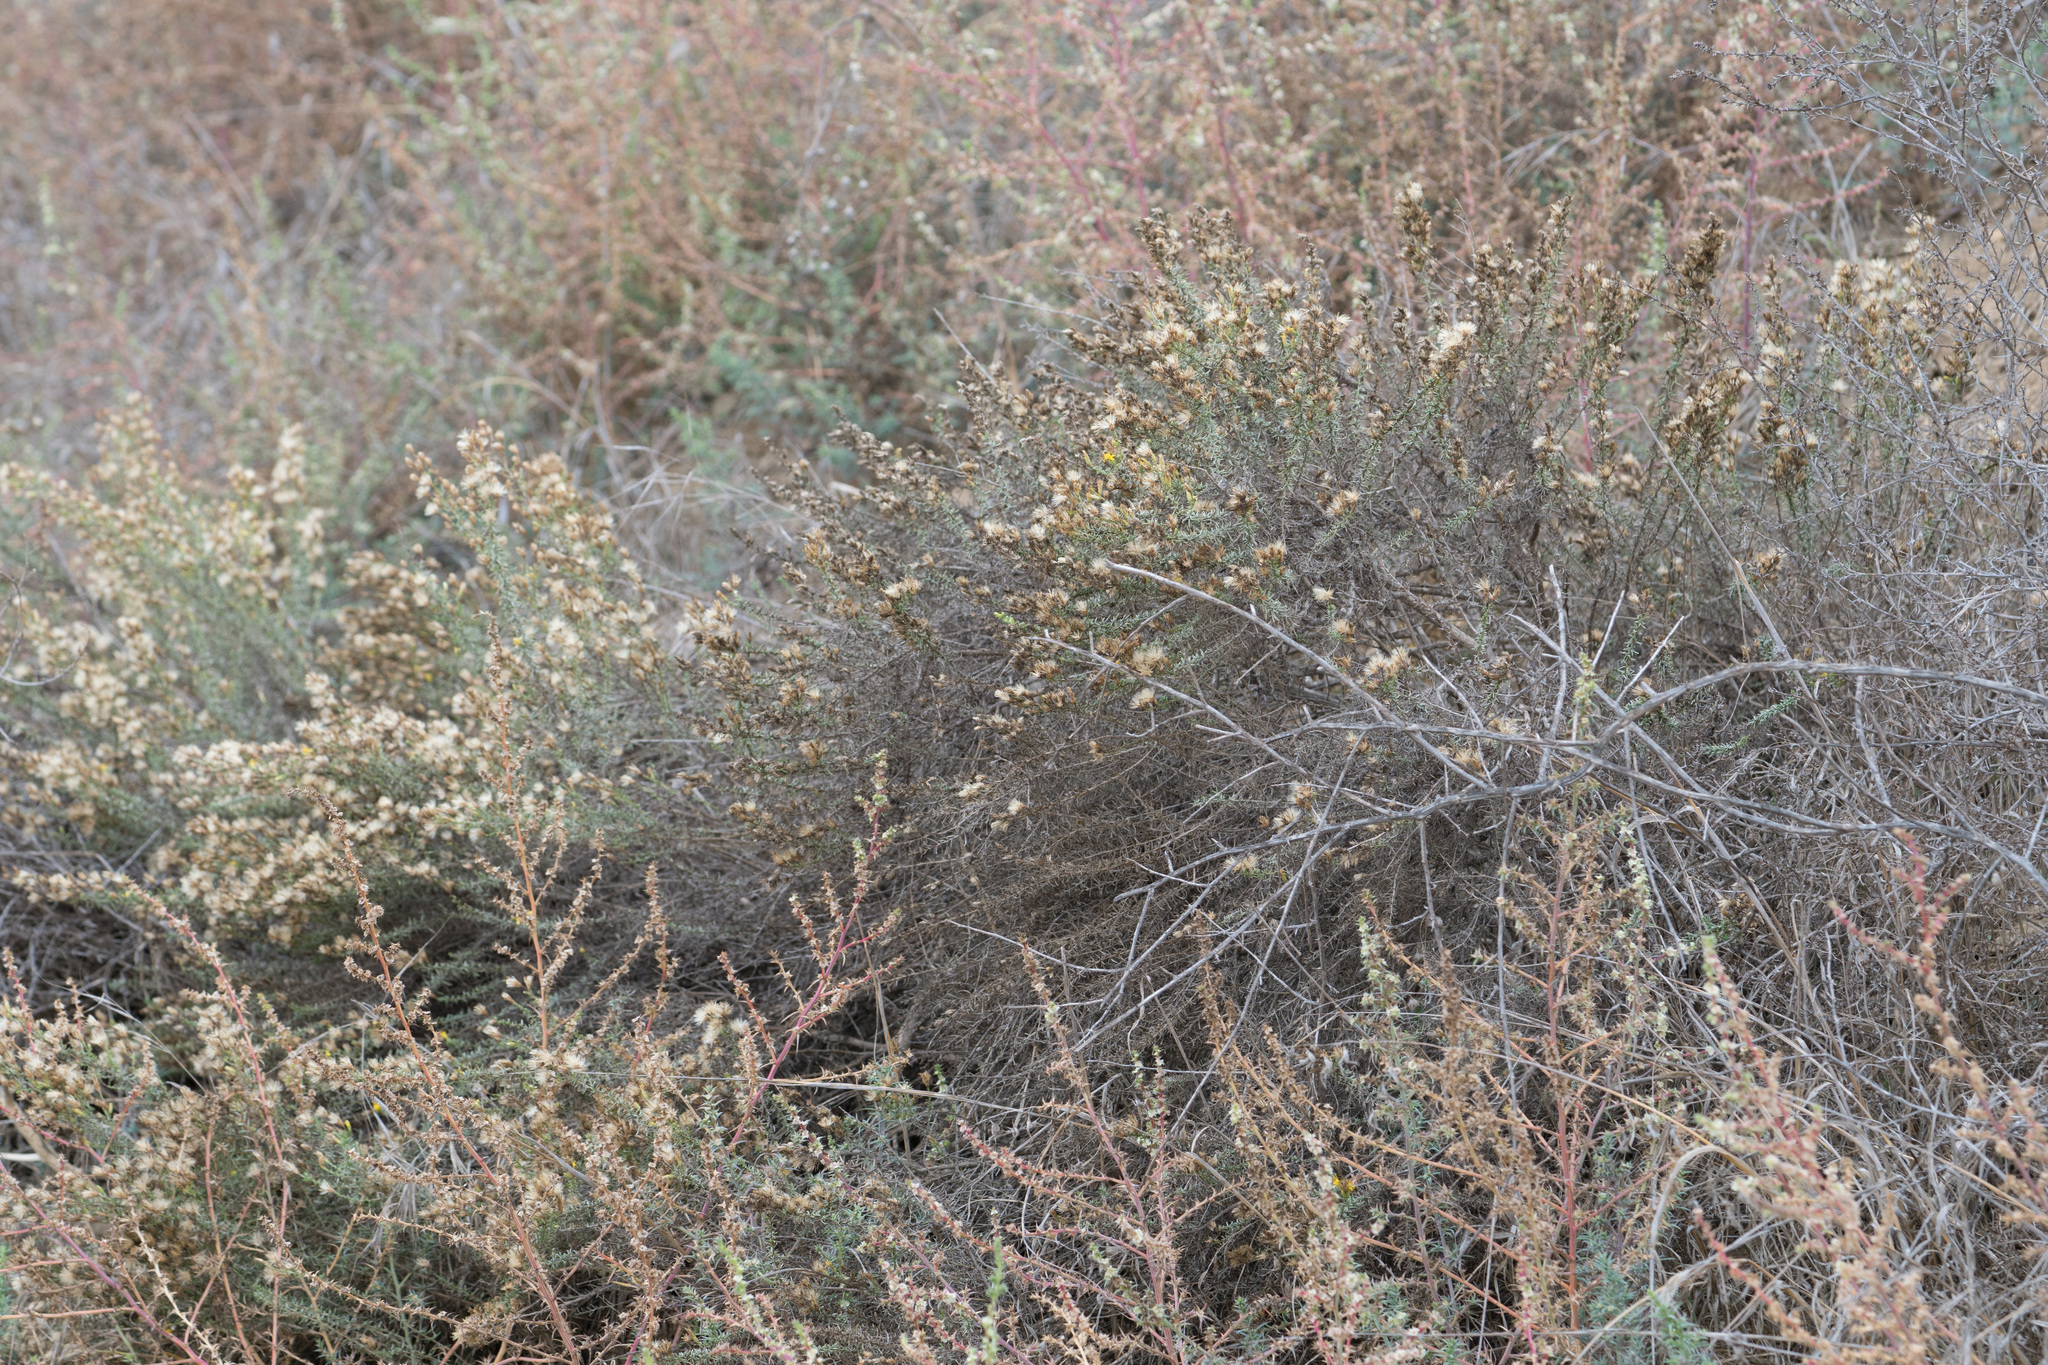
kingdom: Plantae
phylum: Tracheophyta
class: Magnoliopsida
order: Asterales
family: Asteraceae
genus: Ericameria
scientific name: Ericameria palmeri
